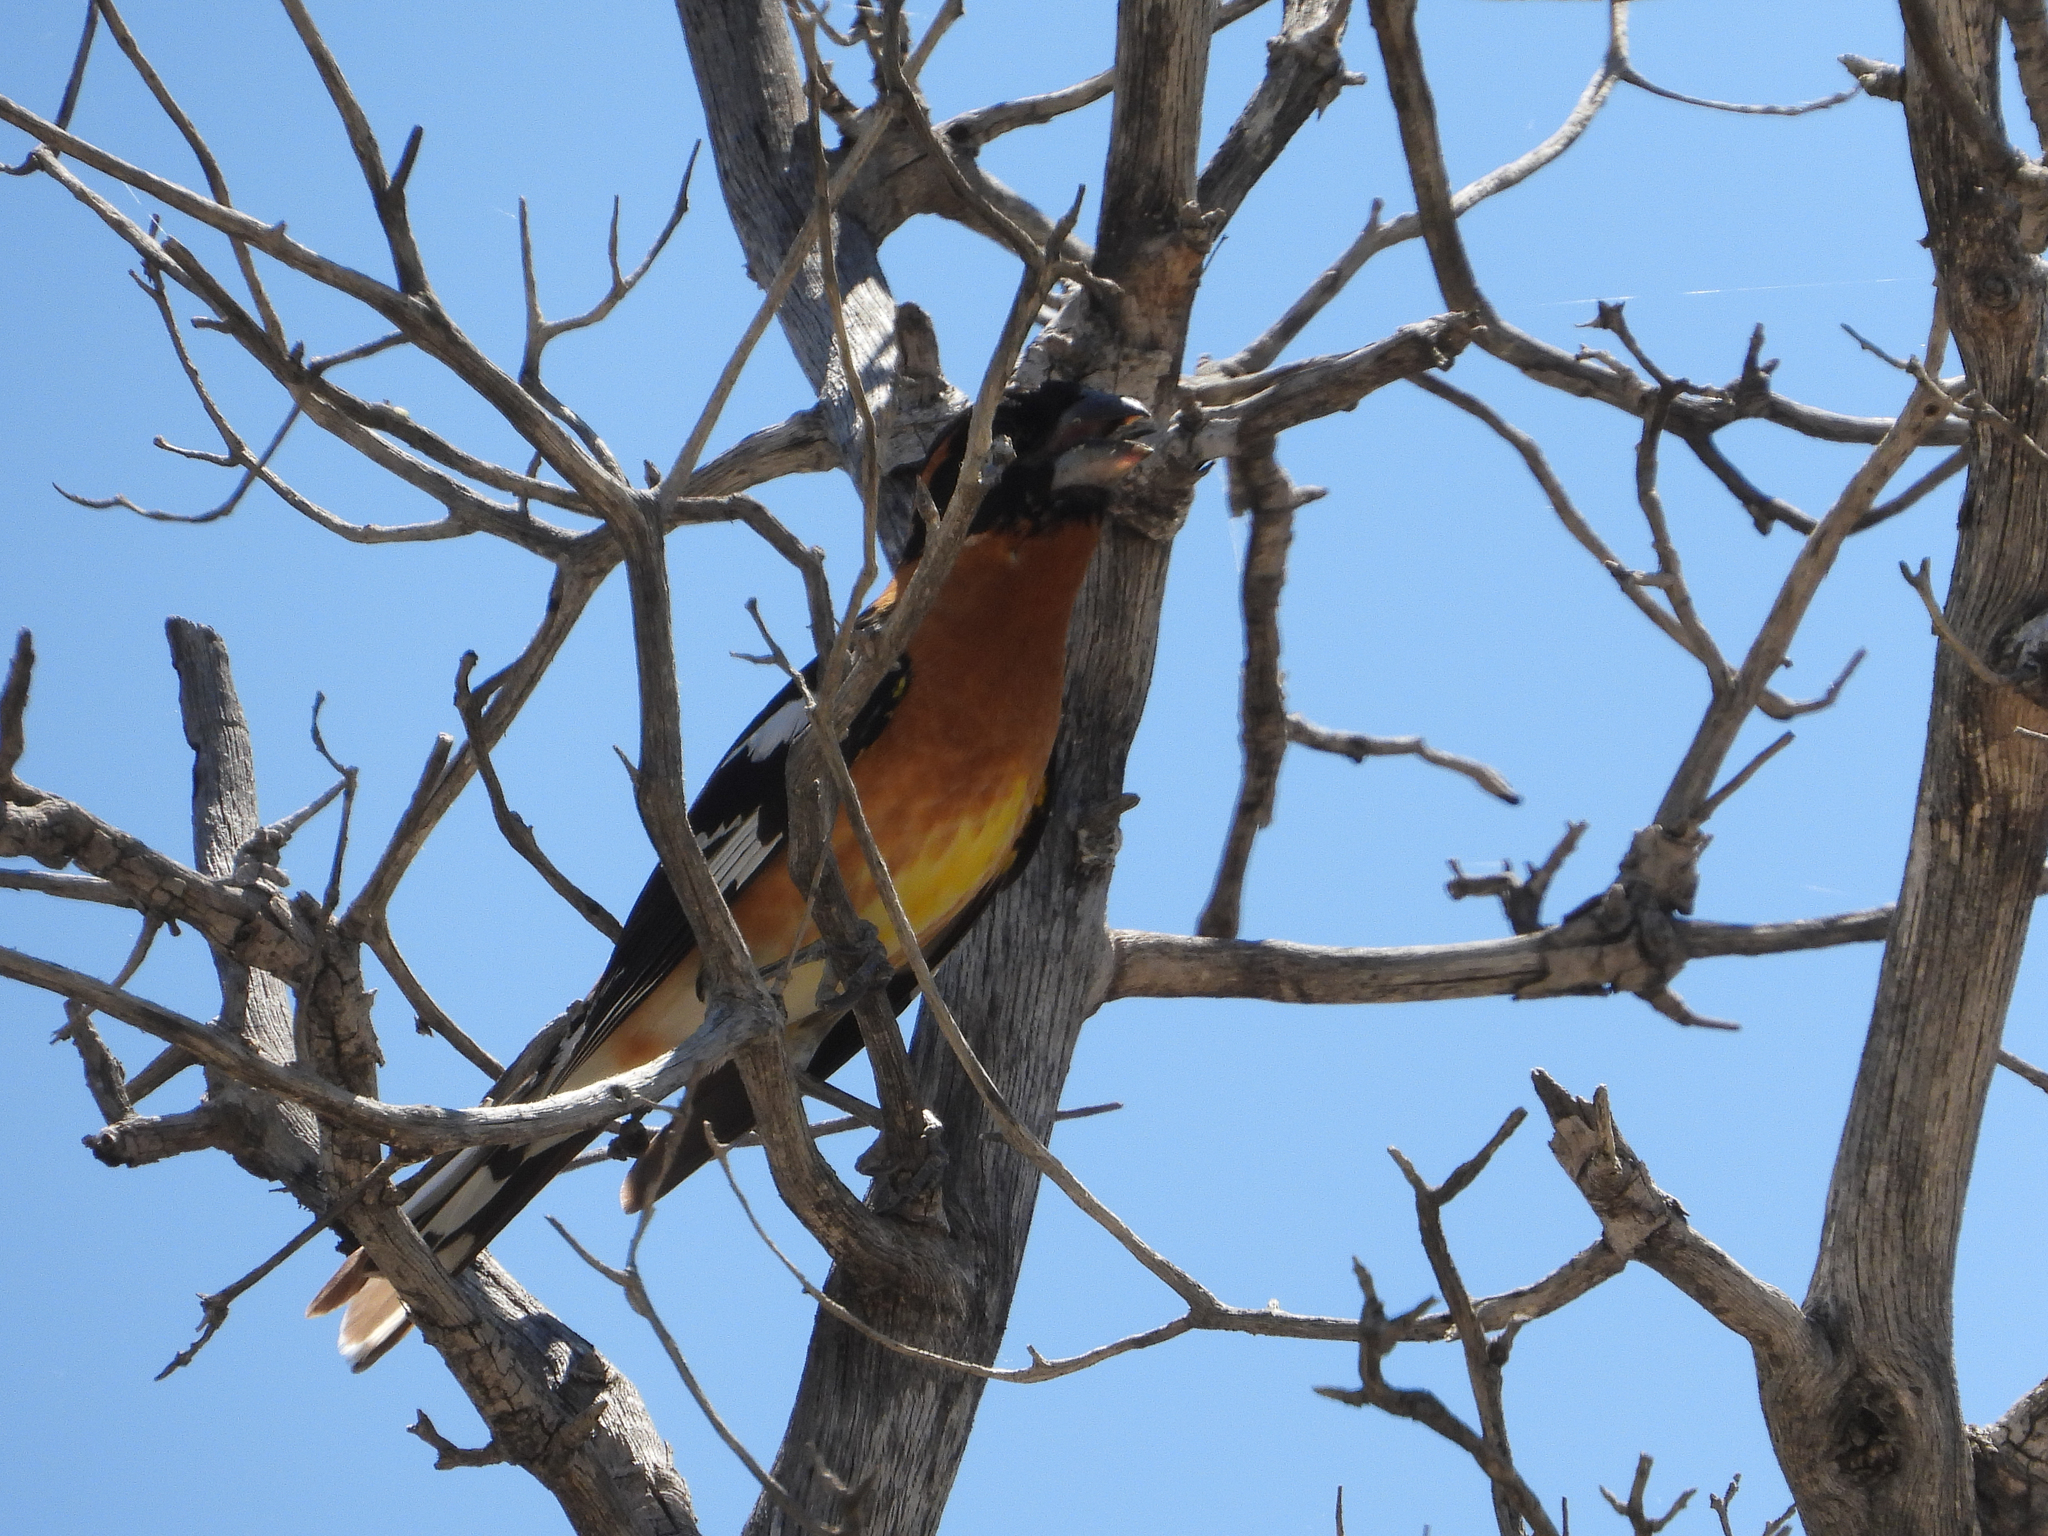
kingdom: Animalia
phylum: Chordata
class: Aves
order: Passeriformes
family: Cardinalidae
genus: Pheucticus
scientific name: Pheucticus melanocephalus
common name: Black-headed grosbeak
